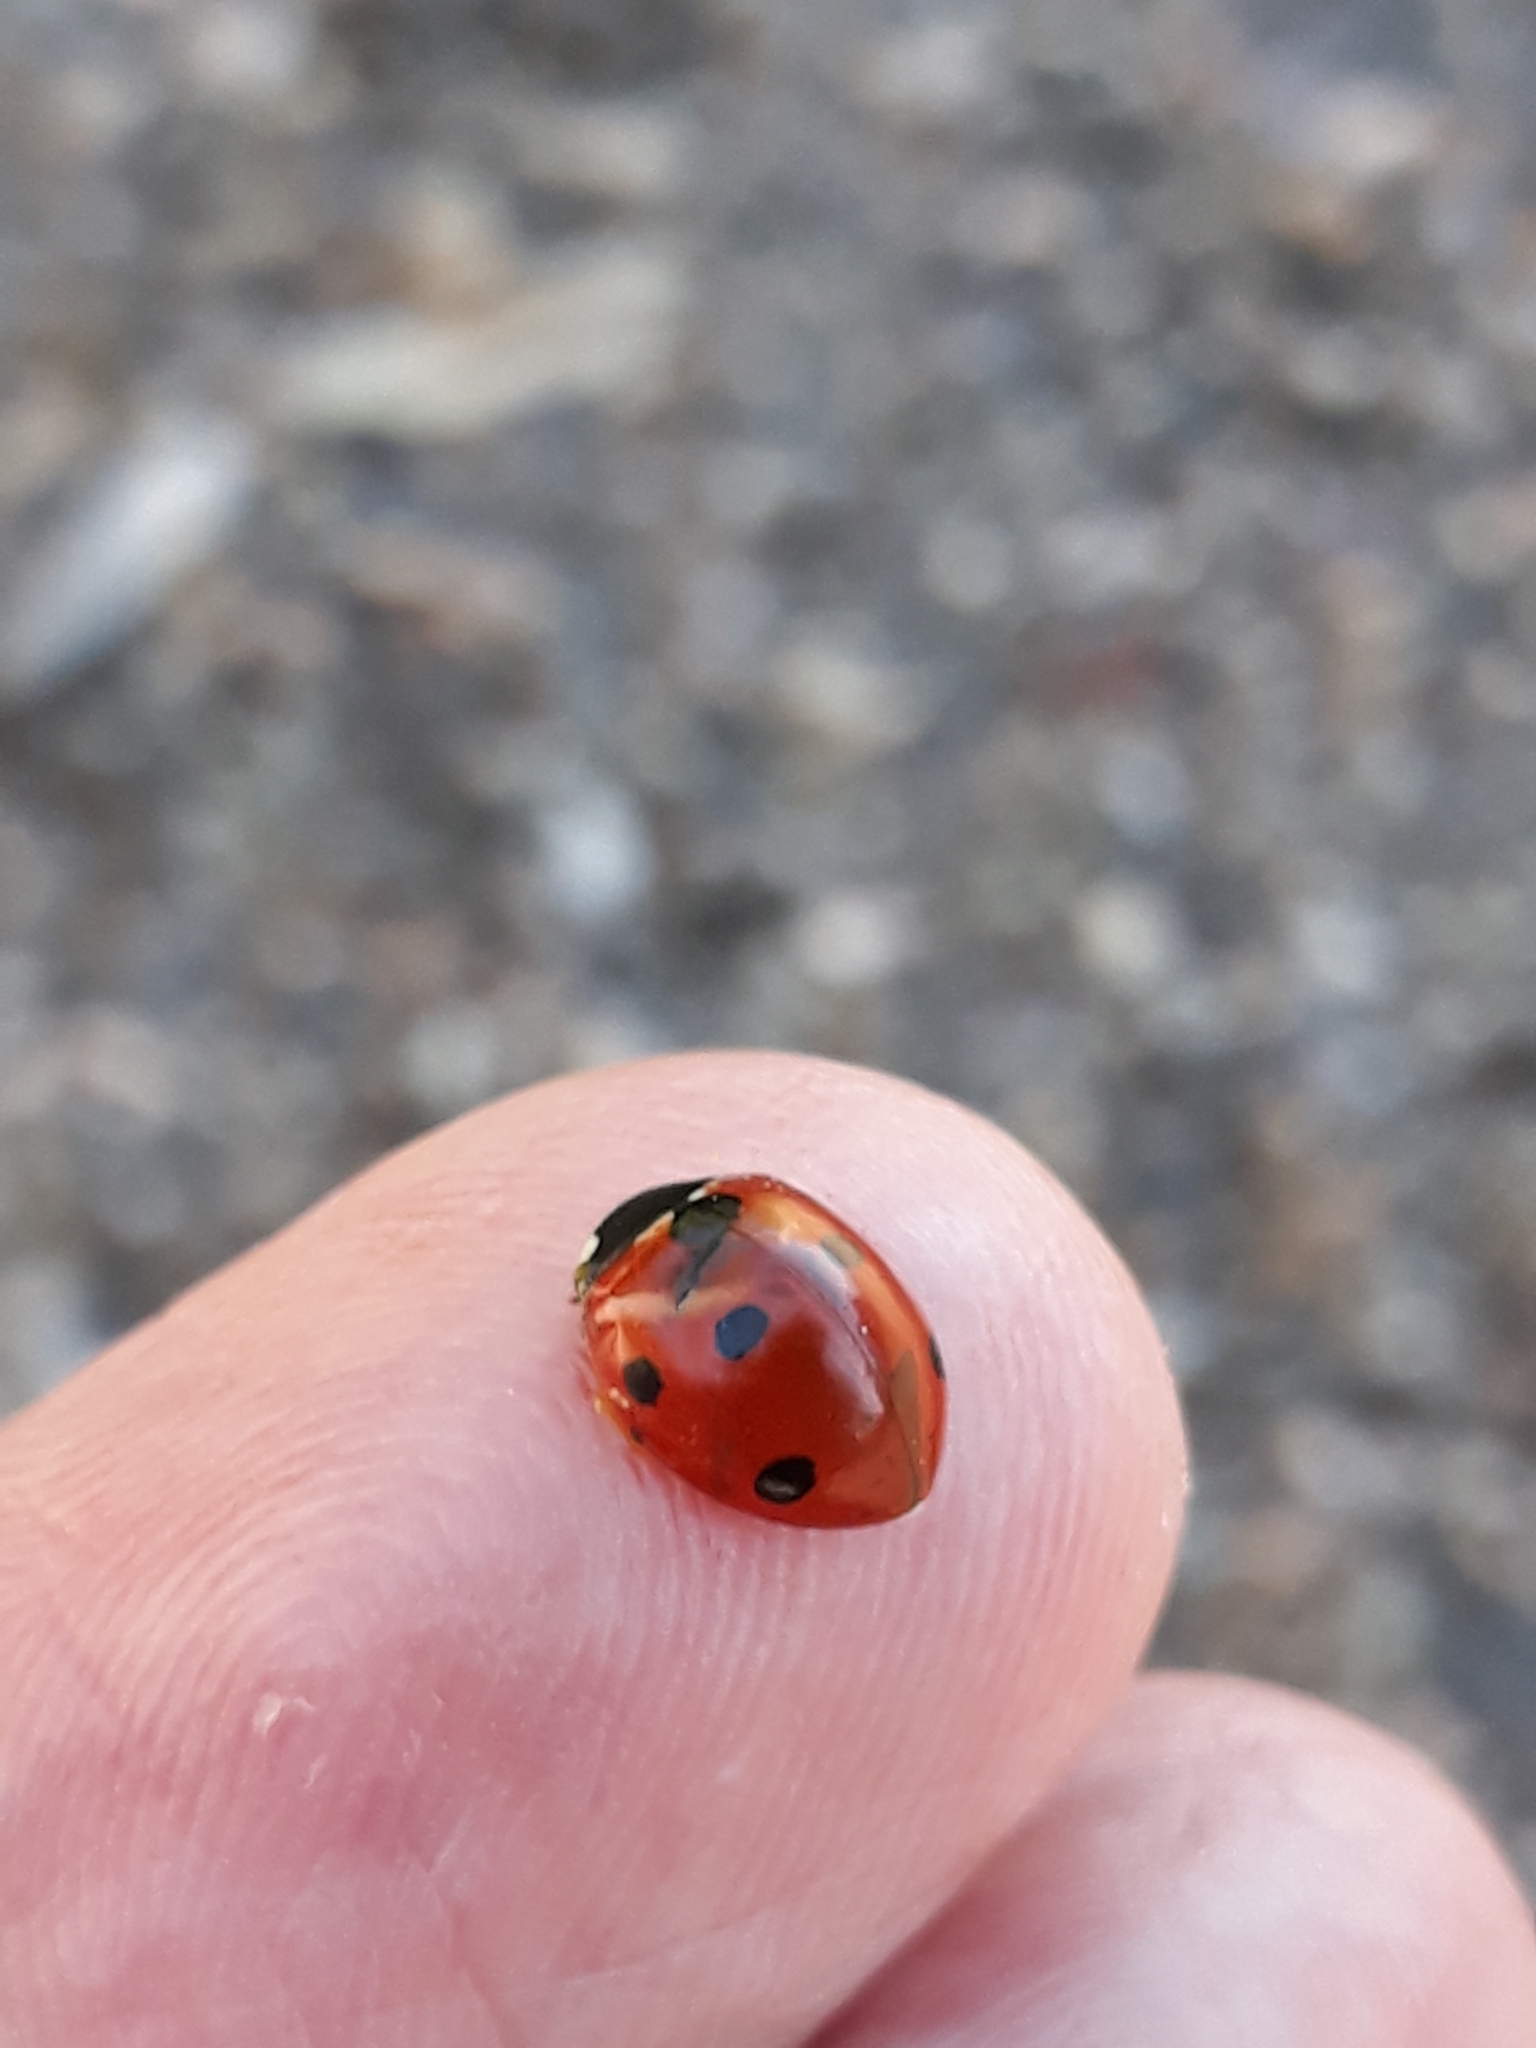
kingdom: Animalia
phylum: Arthropoda
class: Insecta
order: Coleoptera
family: Coccinellidae
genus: Coccinella
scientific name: Coccinella septempunctata
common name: Sevenspotted lady beetle
